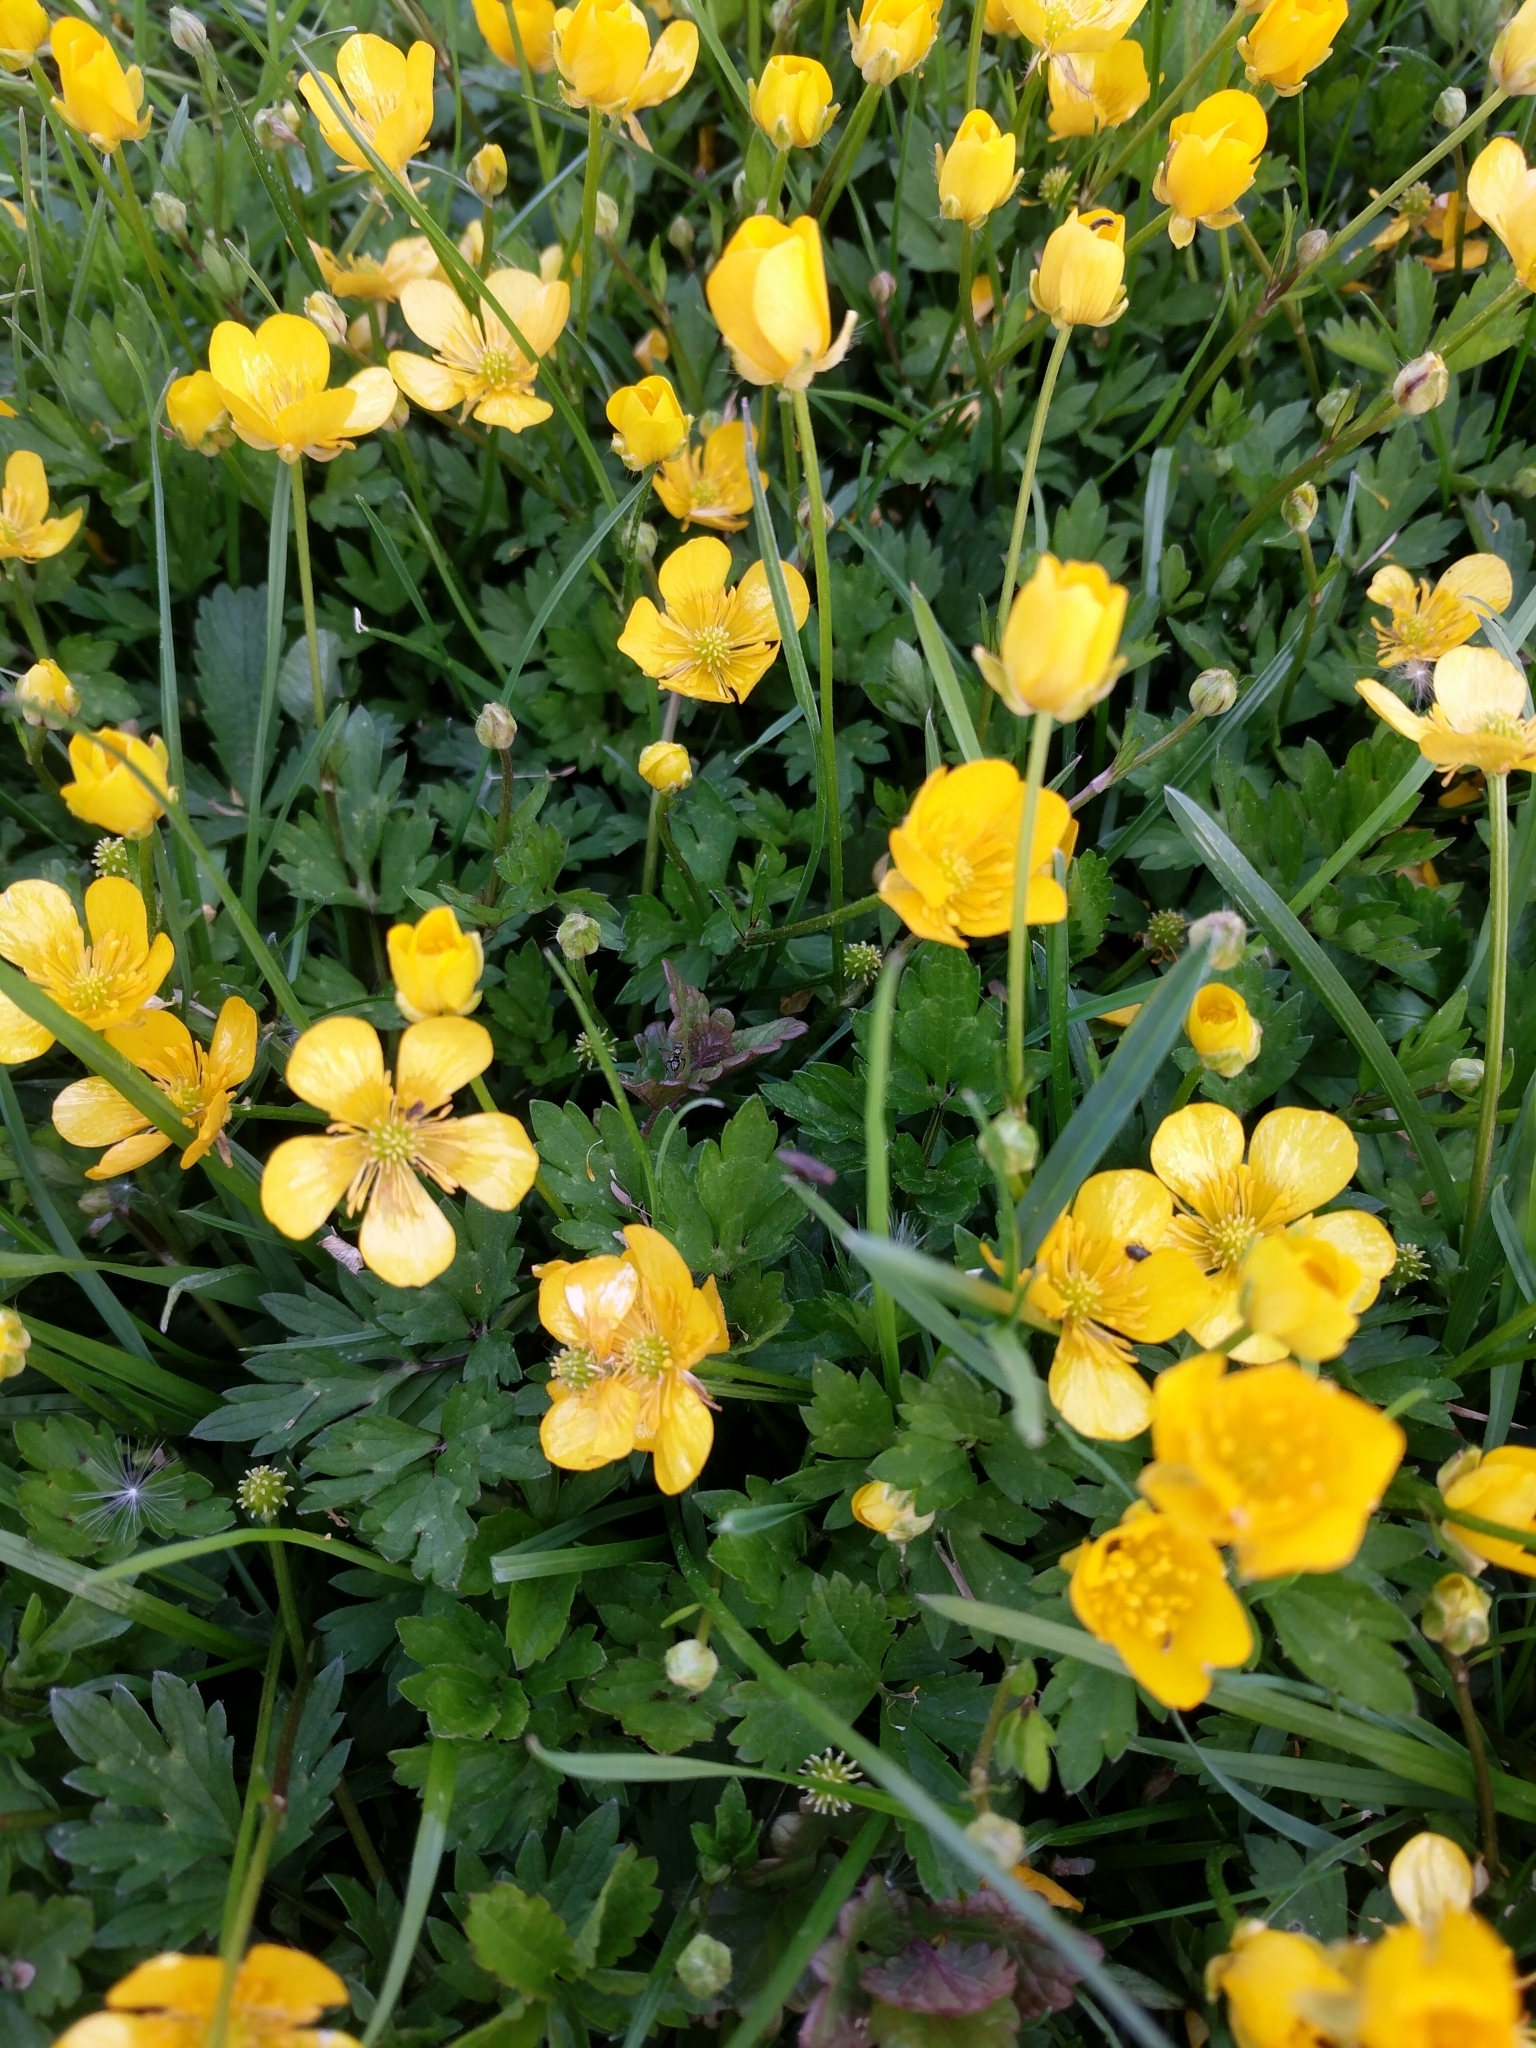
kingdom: Plantae
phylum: Tracheophyta
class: Magnoliopsida
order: Ranunculales
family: Ranunculaceae
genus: Ranunculus
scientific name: Ranunculus repens
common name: Creeping buttercup
